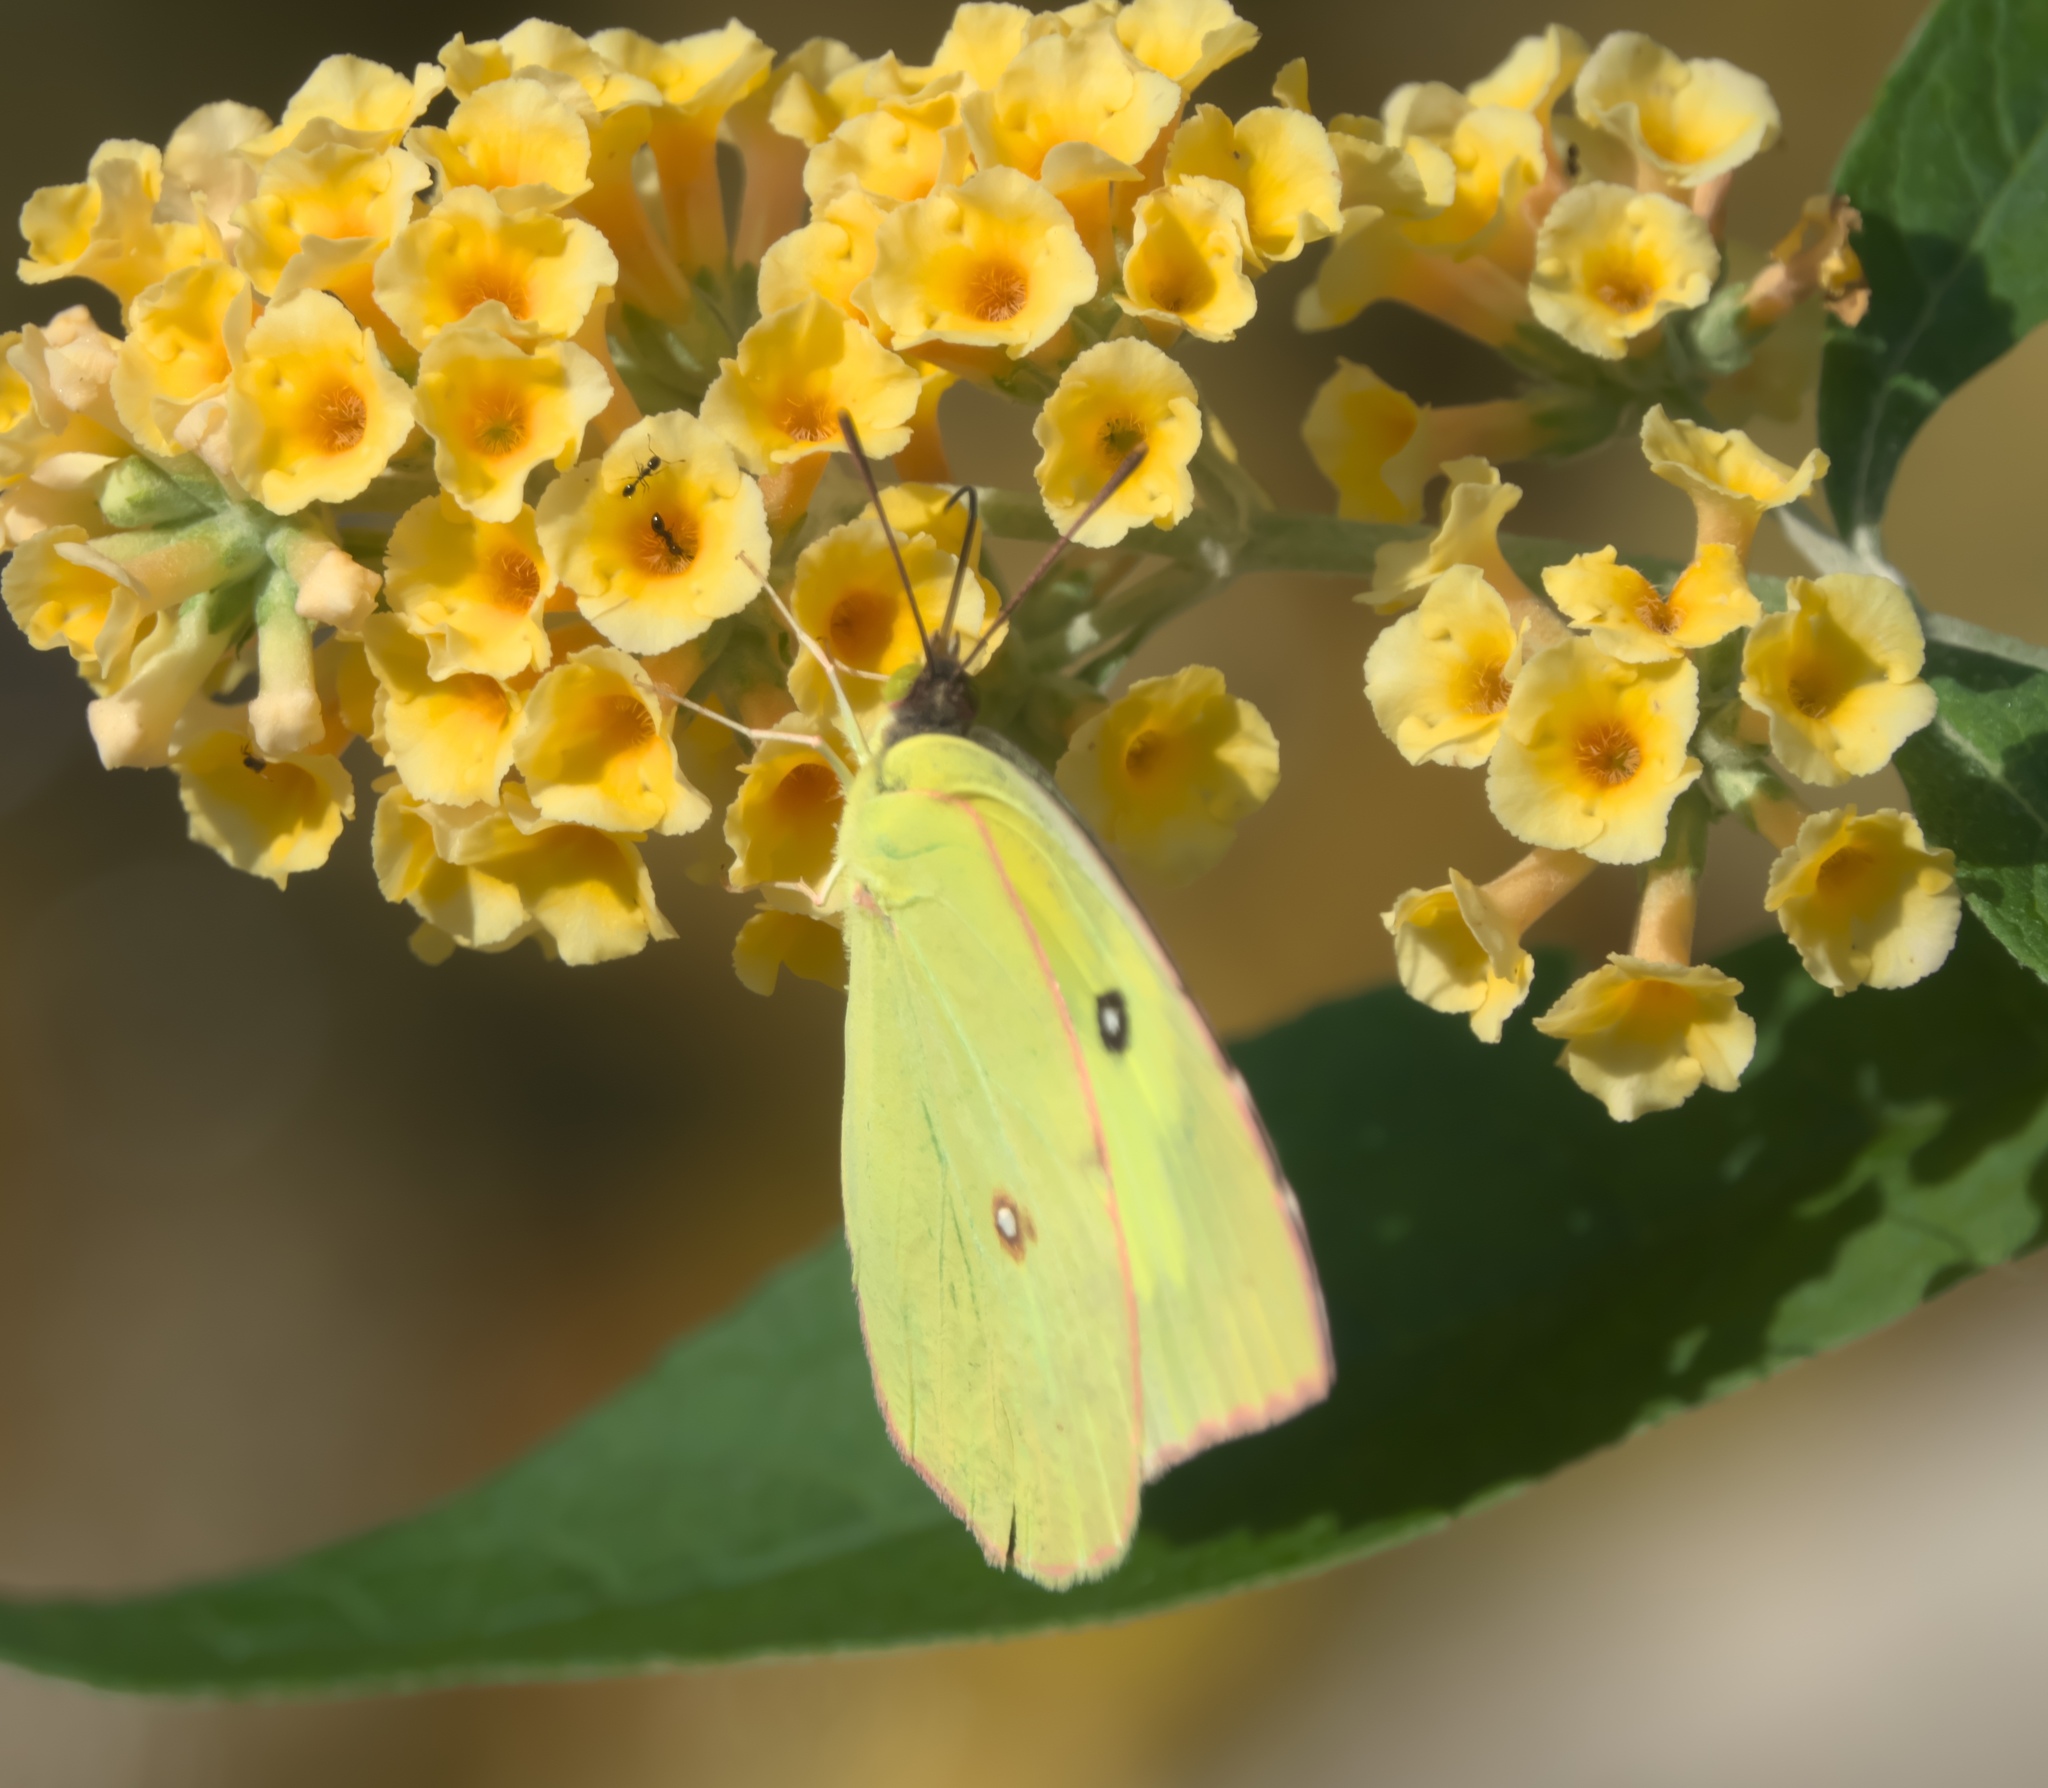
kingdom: Animalia
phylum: Arthropoda
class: Insecta
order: Lepidoptera
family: Pieridae
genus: Zerene
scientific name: Zerene cesonia
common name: Southern dogface
